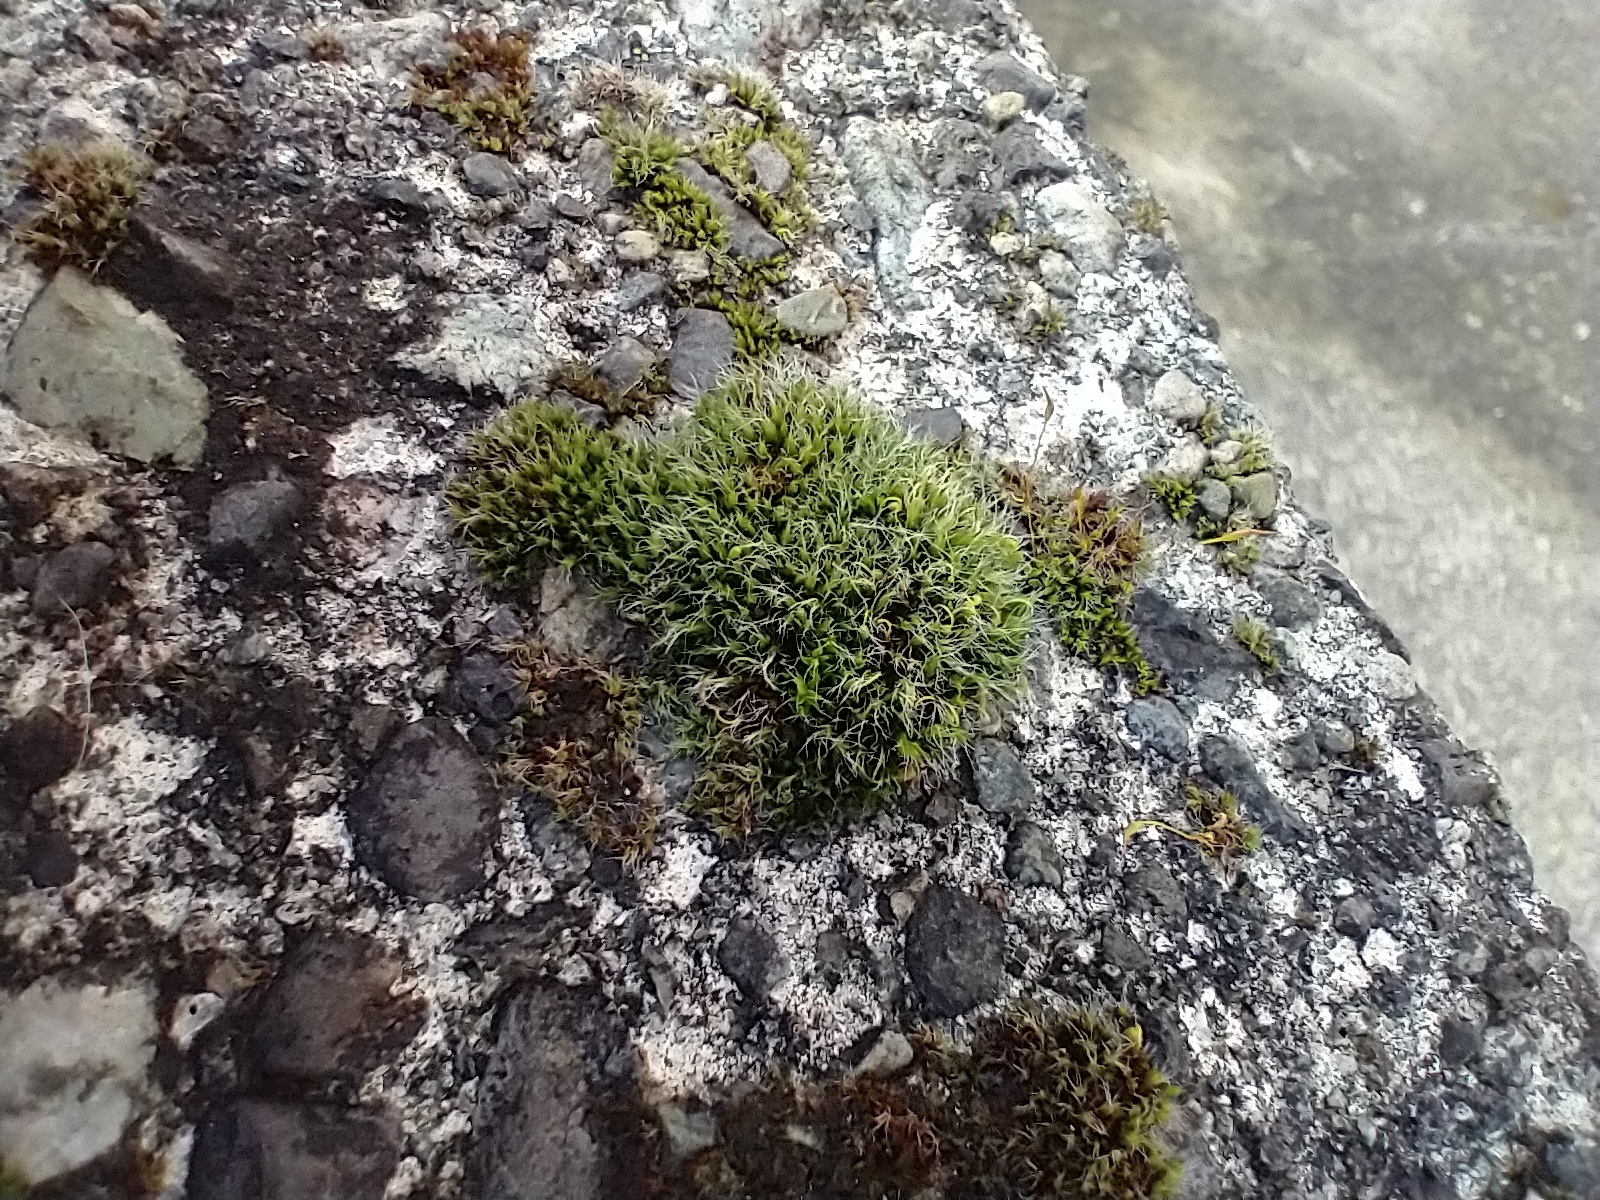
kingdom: Plantae
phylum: Bryophyta
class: Bryopsida
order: Grimmiales
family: Grimmiaceae
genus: Grimmia
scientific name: Grimmia pulvinata
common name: Grey-cushioned grimmia
